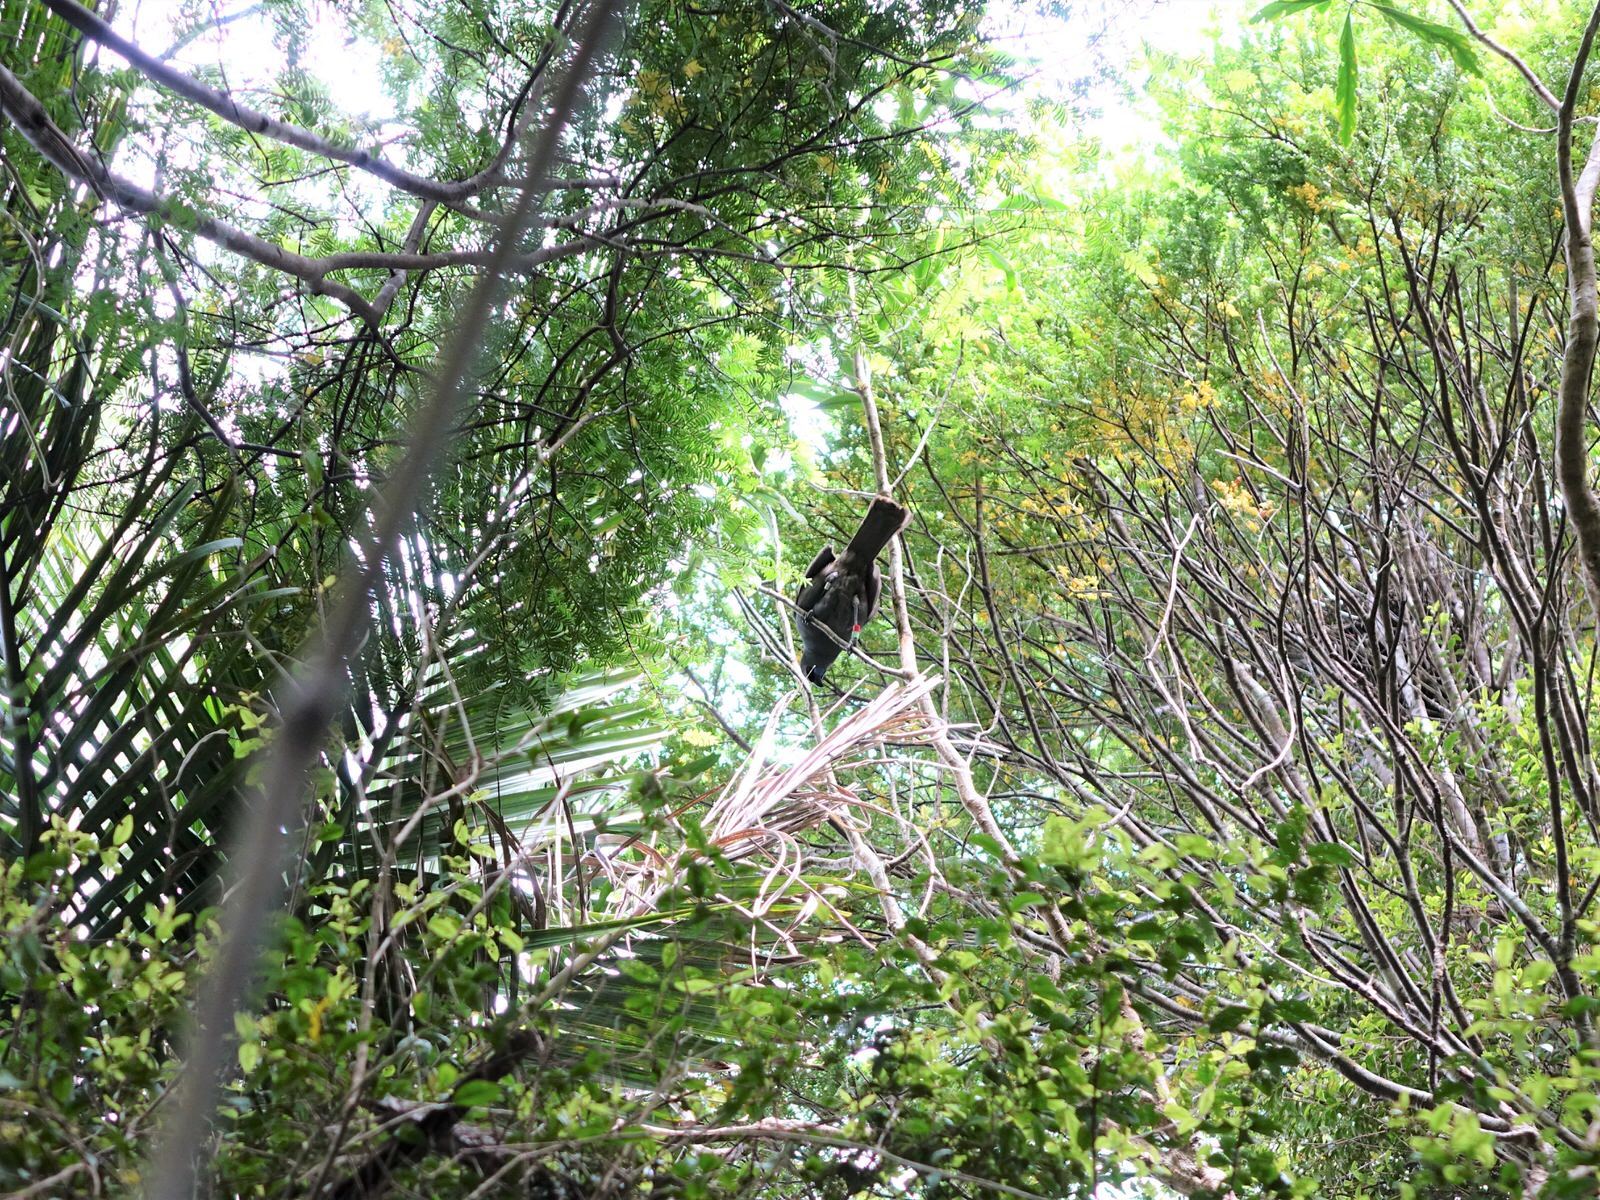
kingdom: Animalia
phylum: Chordata
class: Aves
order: Passeriformes
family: Callaeatidae
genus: Callaeas
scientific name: Callaeas cinereus
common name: South island kokako
